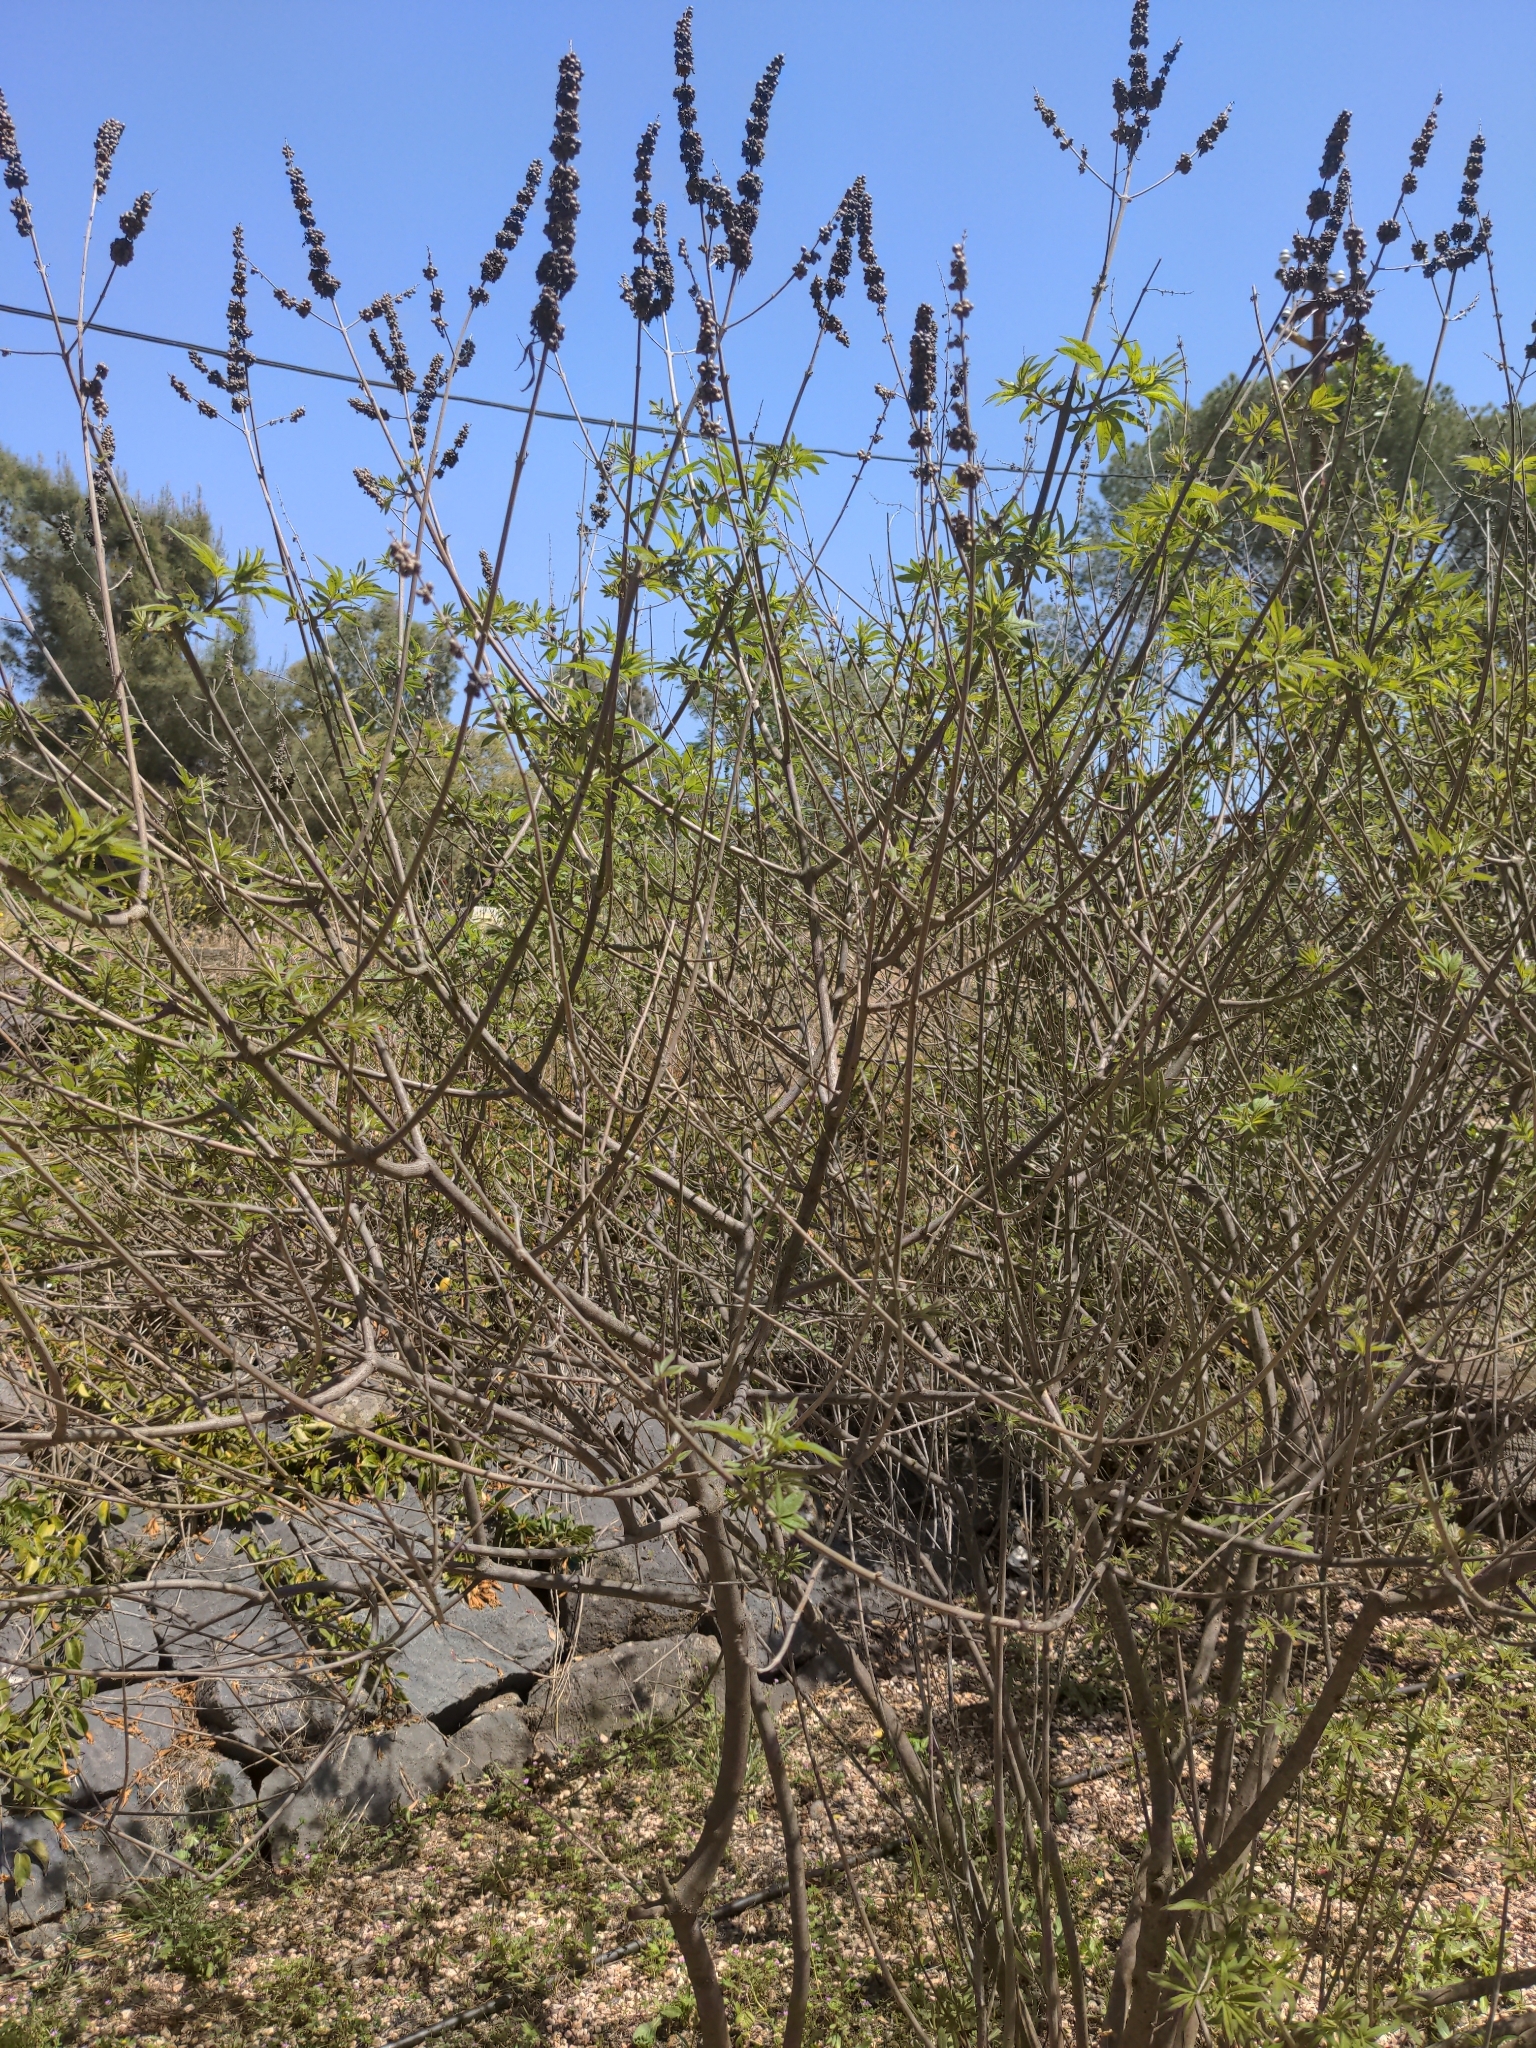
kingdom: Plantae
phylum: Tracheophyta
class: Magnoliopsida
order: Lamiales
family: Lamiaceae
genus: Vitex
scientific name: Vitex agnus-castus
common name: Chasteberry
